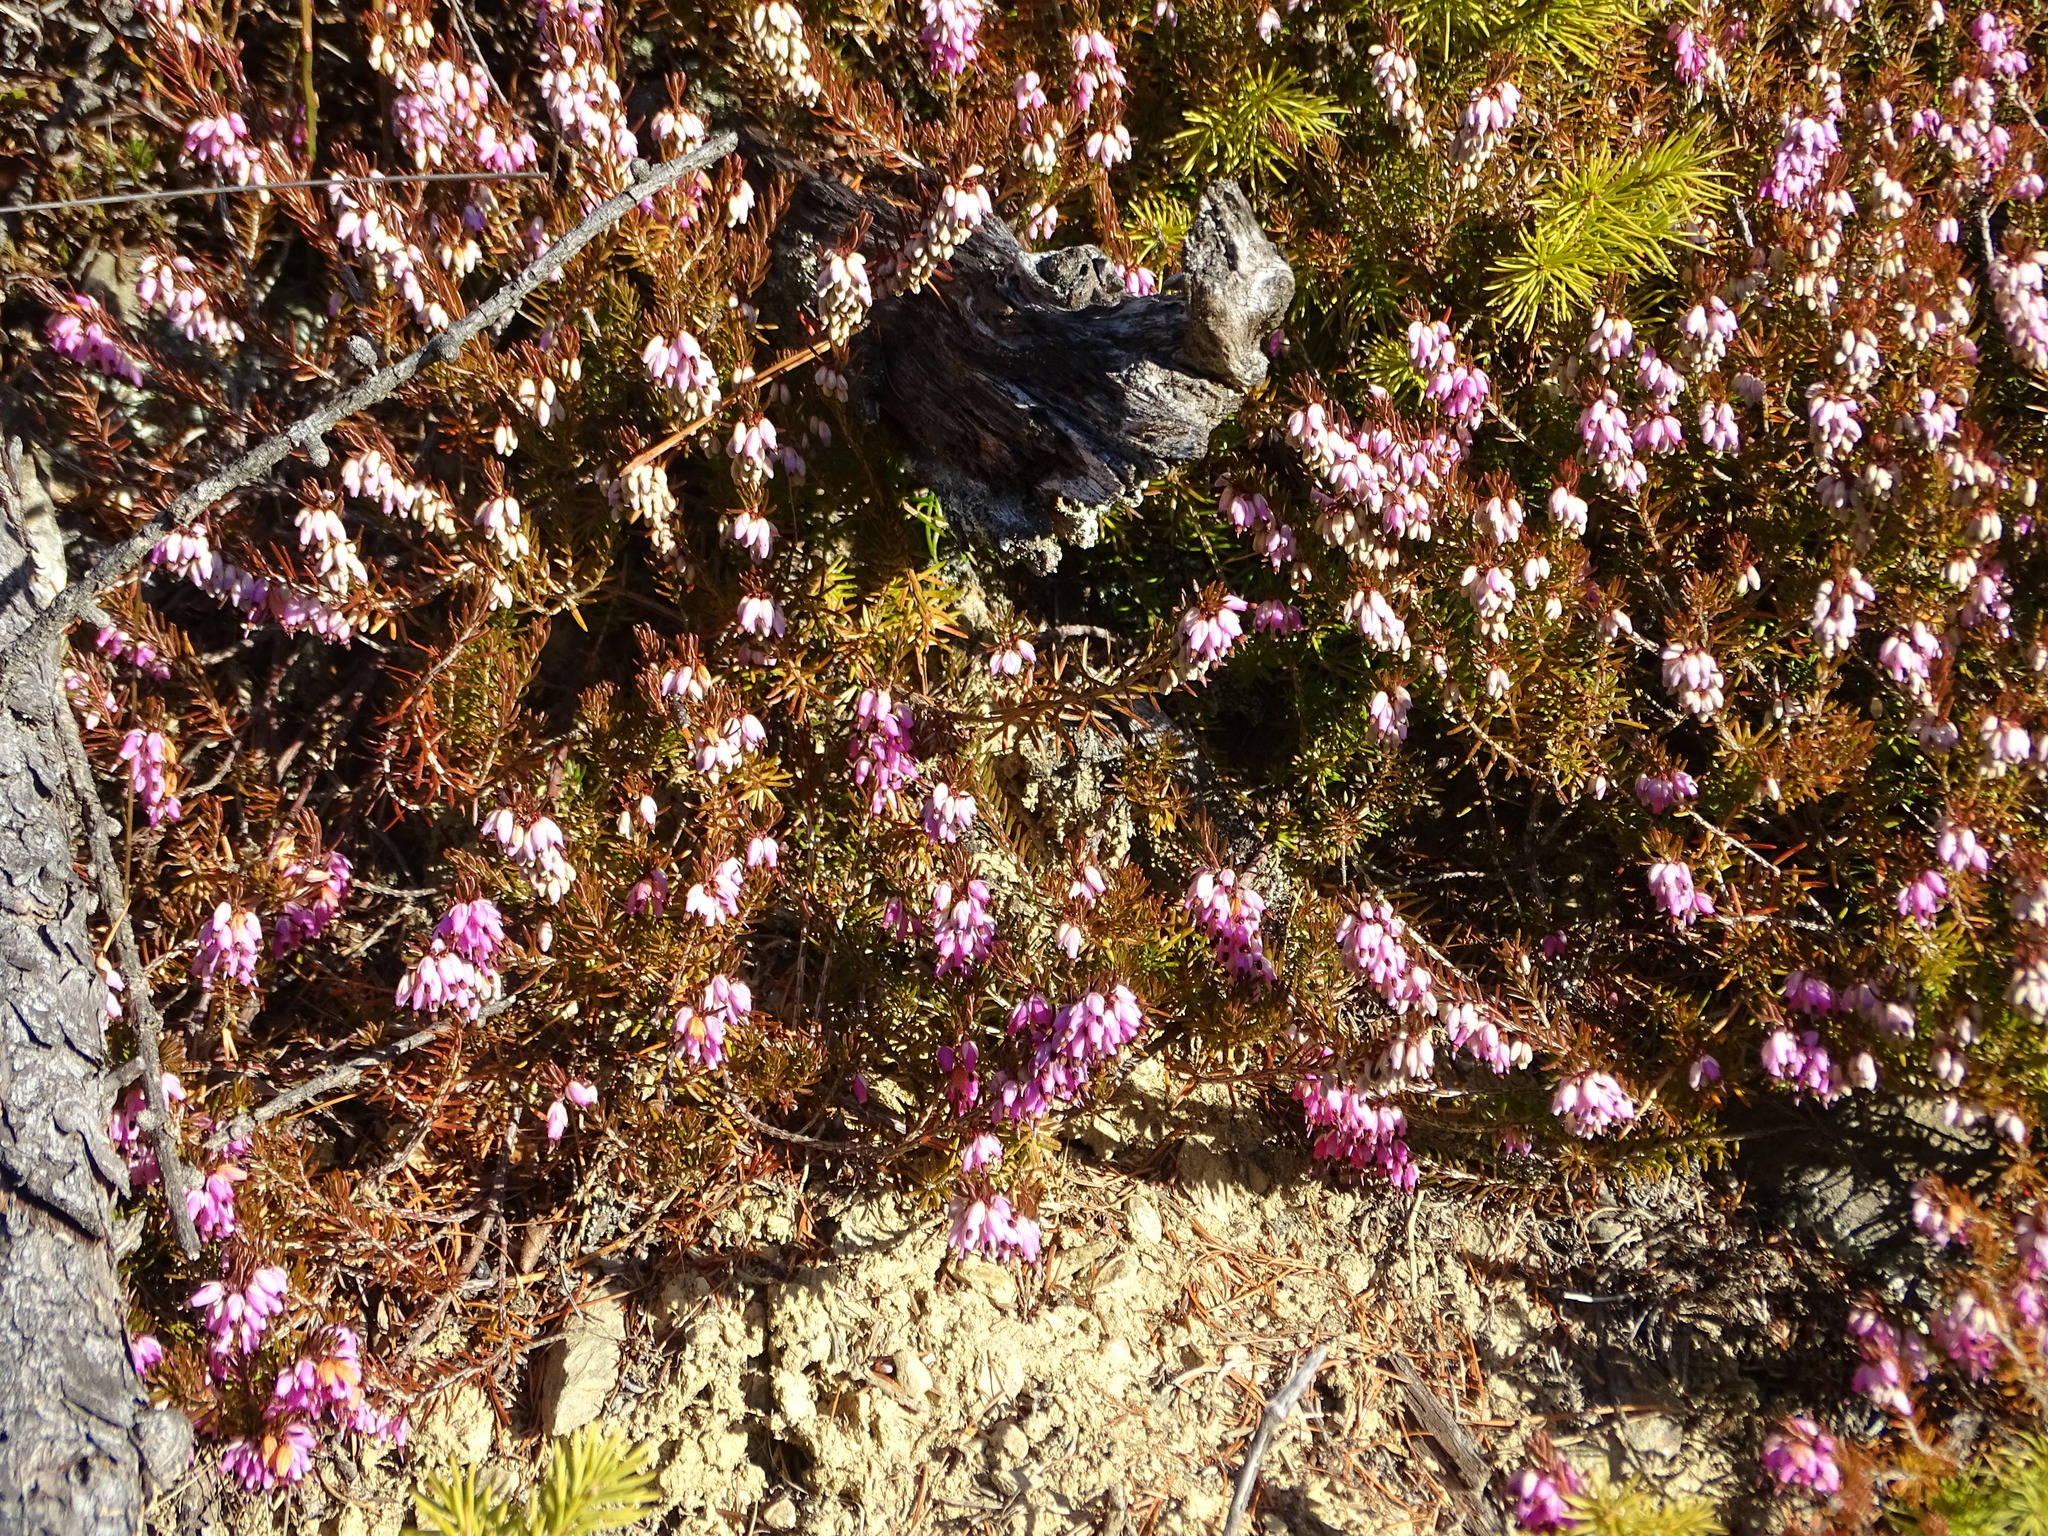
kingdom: Plantae
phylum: Tracheophyta
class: Magnoliopsida
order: Ericales
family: Ericaceae
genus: Erica
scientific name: Erica carnea
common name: Winter heath
